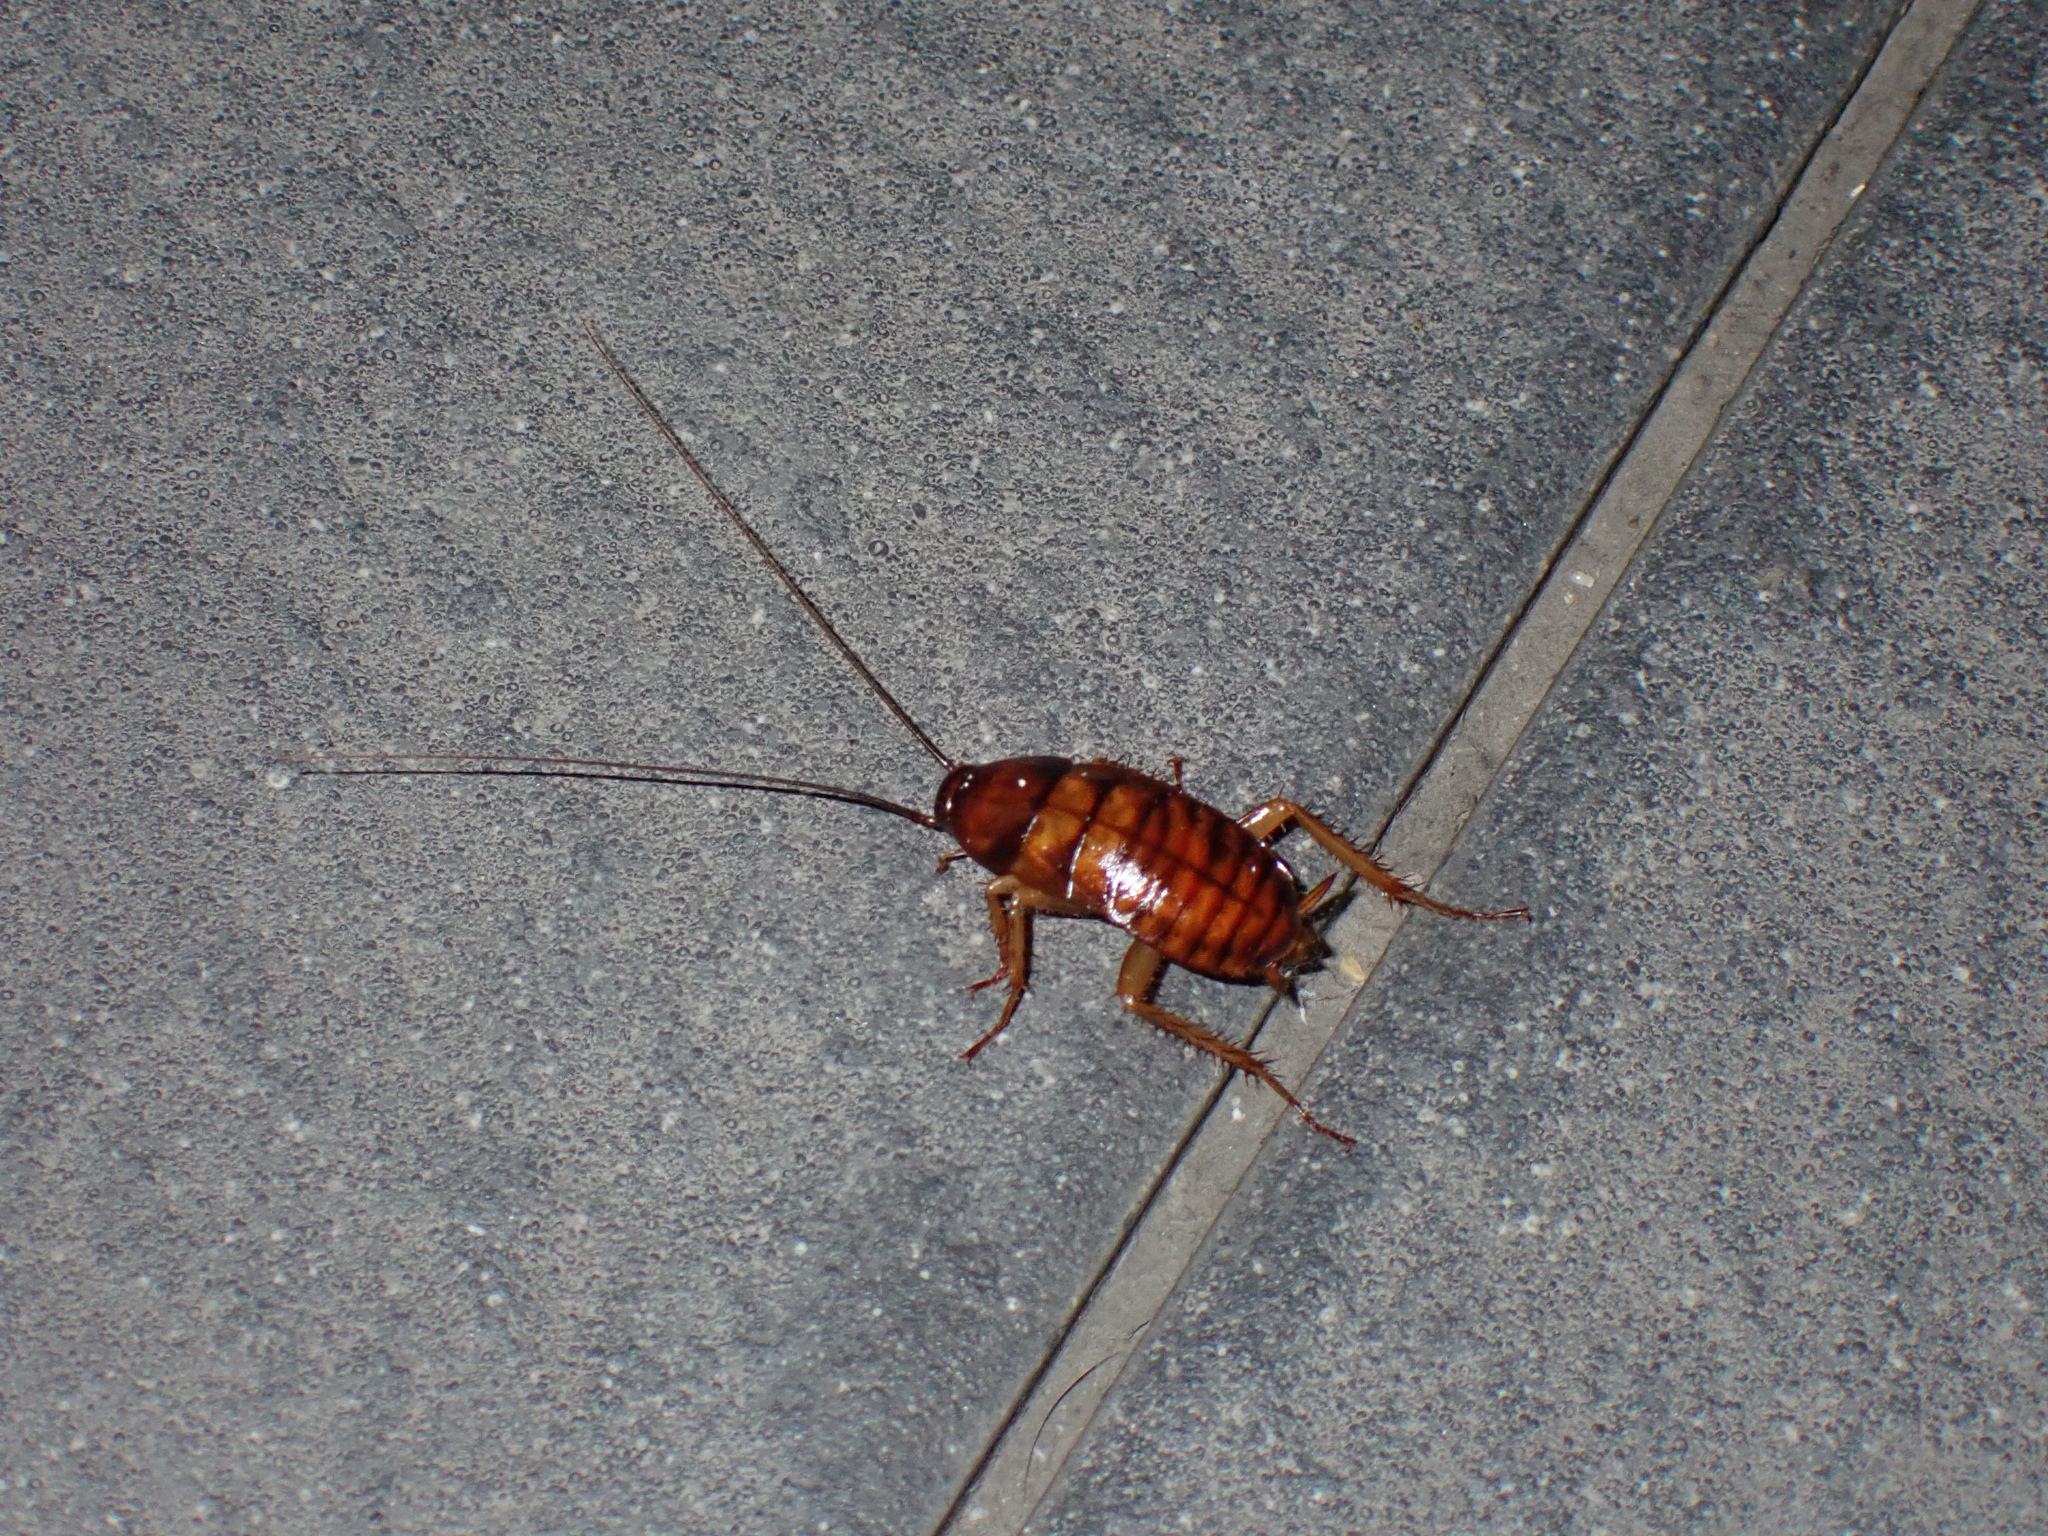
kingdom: Animalia
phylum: Arthropoda
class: Insecta
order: Blattodea
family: Blattidae
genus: Periplaneta
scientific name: Periplaneta americana
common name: American cockroach
